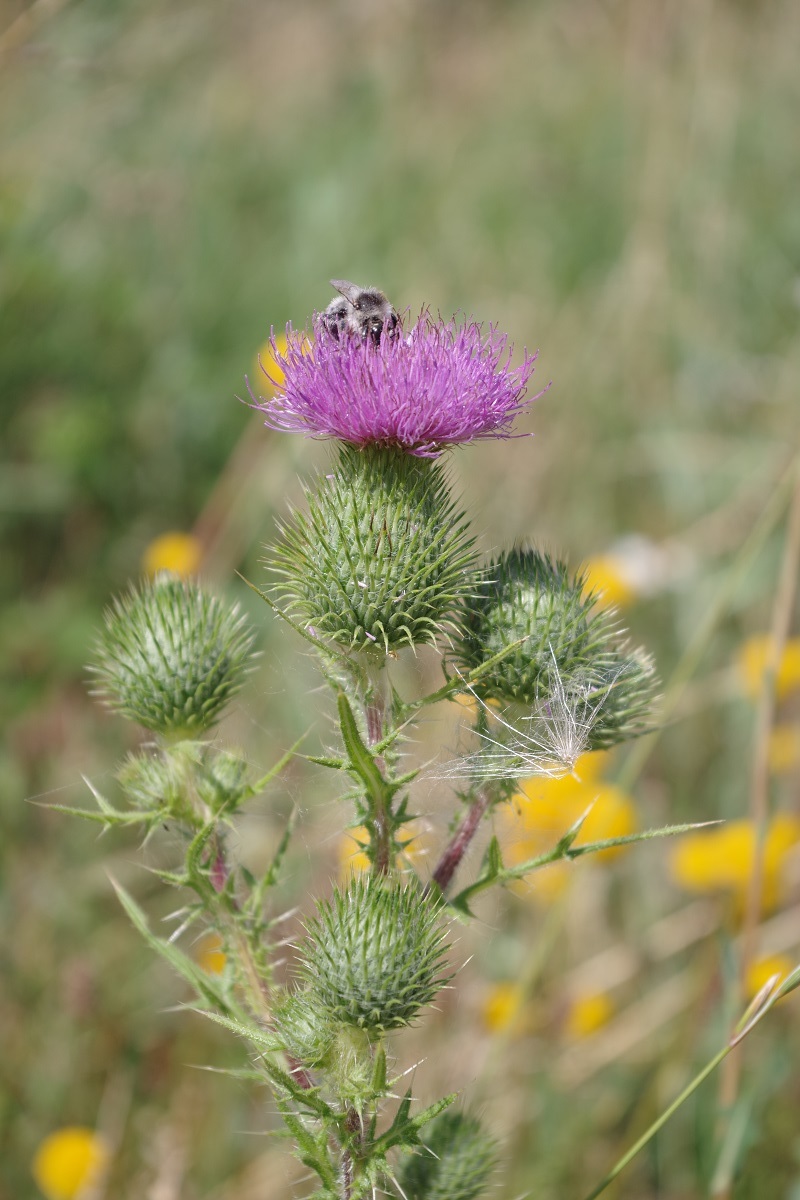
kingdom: Plantae
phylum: Tracheophyta
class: Magnoliopsida
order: Asterales
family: Asteraceae
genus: Cirsium
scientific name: Cirsium vulgare
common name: Bull thistle
